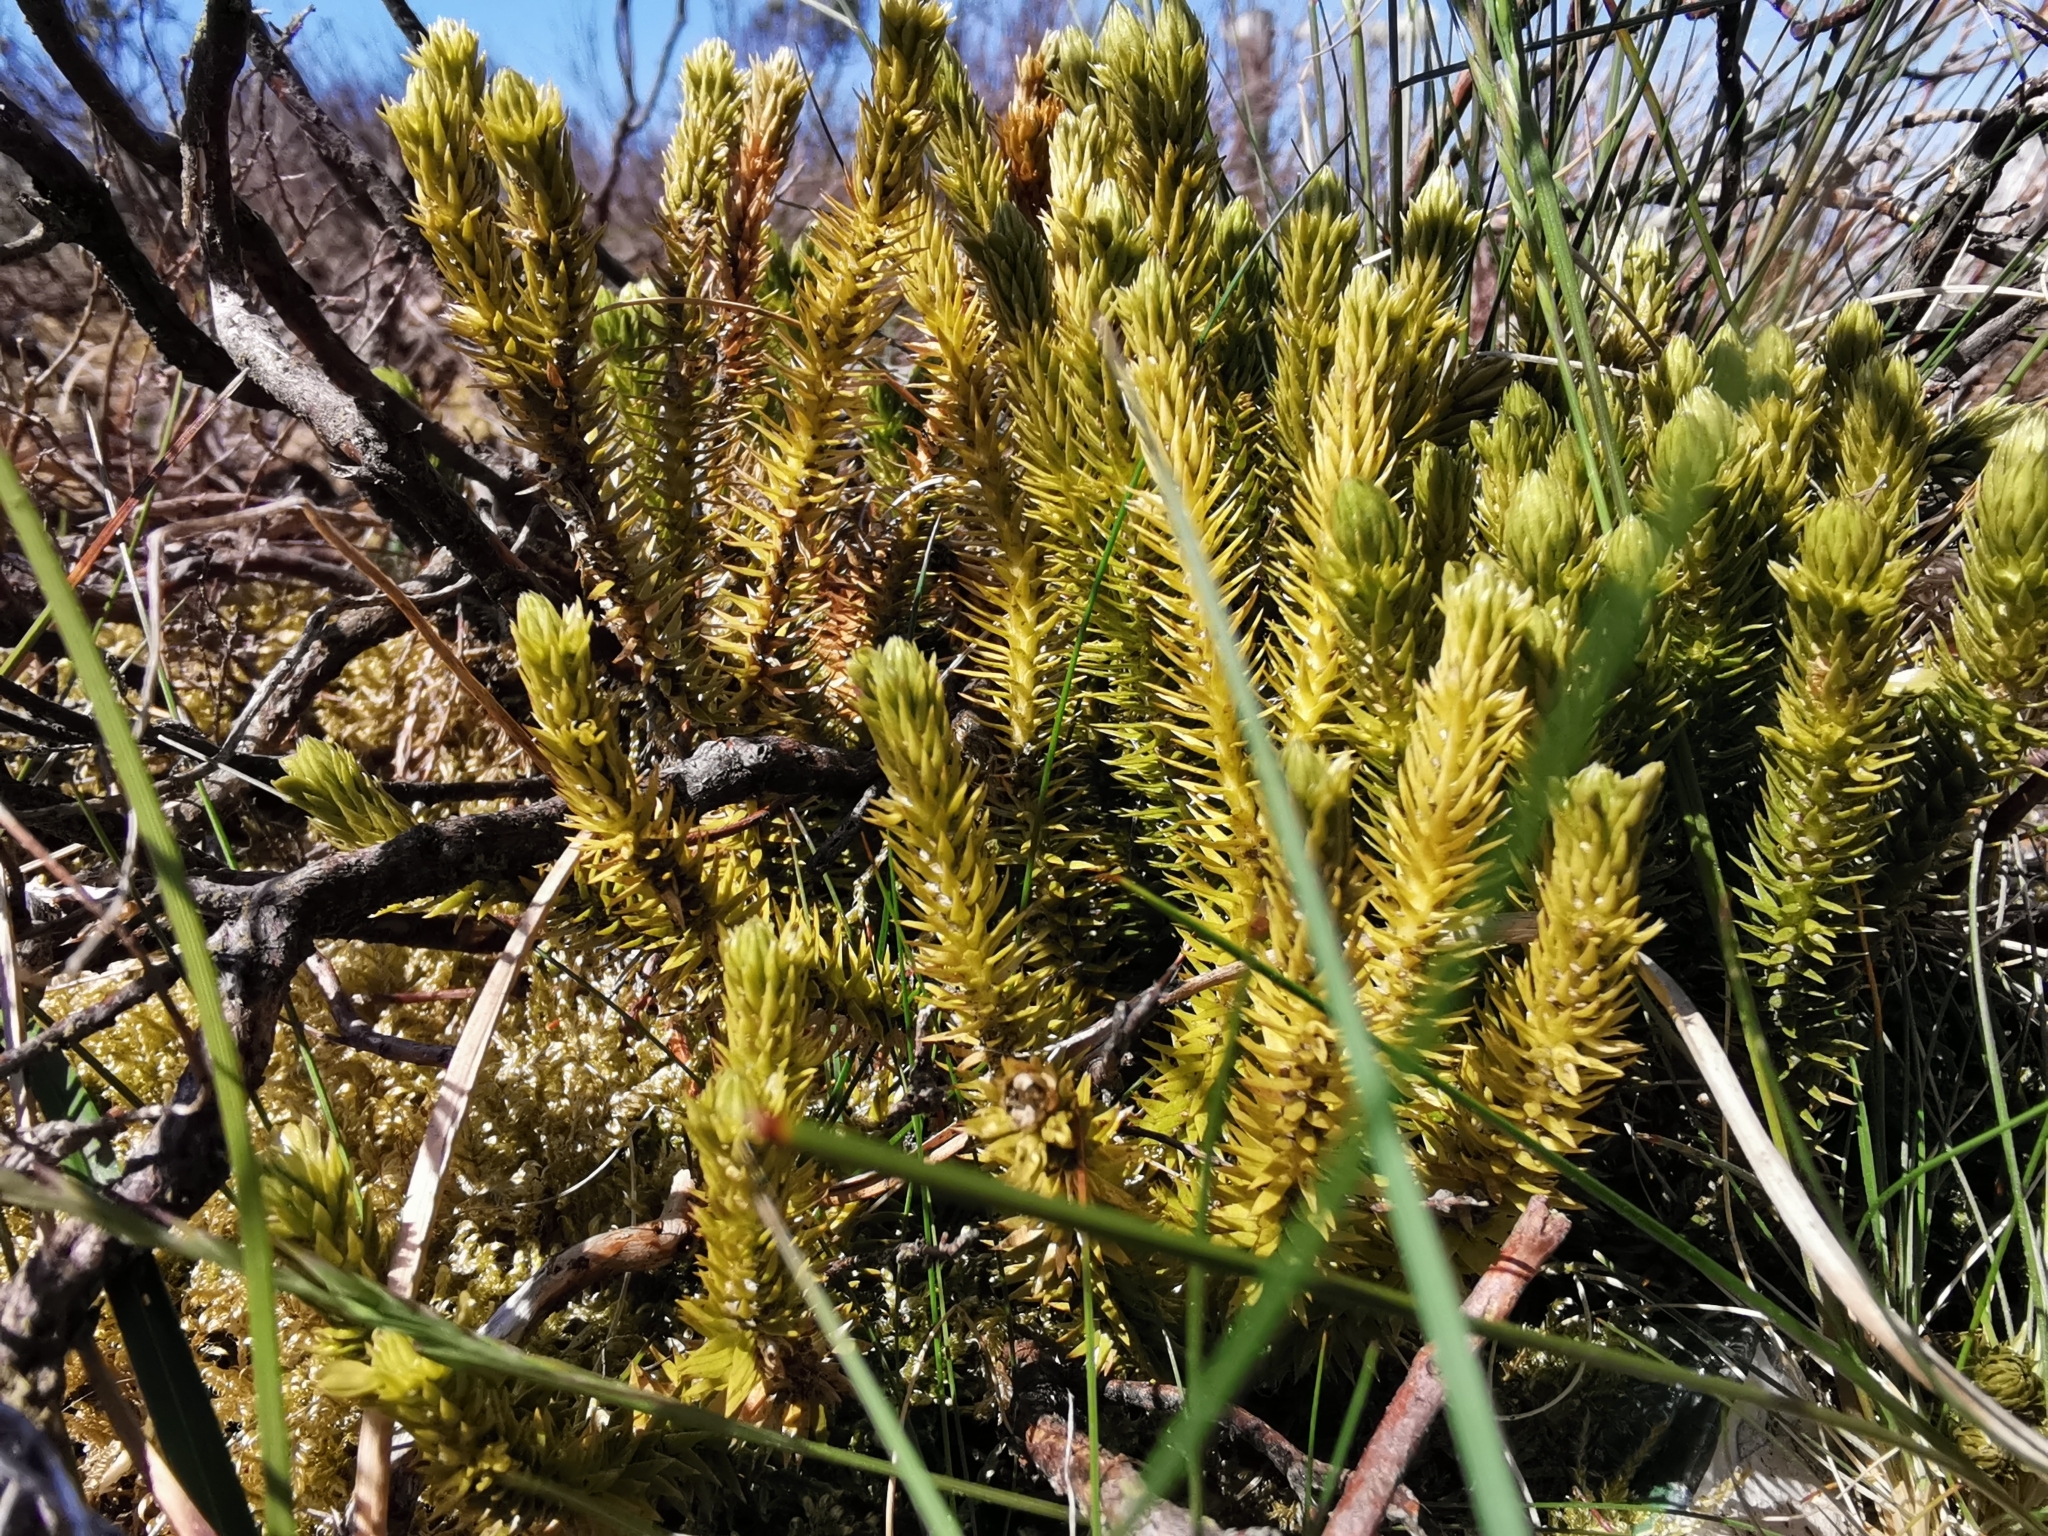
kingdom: Plantae
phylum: Tracheophyta
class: Lycopodiopsida
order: Lycopodiales
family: Lycopodiaceae
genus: Huperzia
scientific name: Huperzia selago
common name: Northern firmoss
